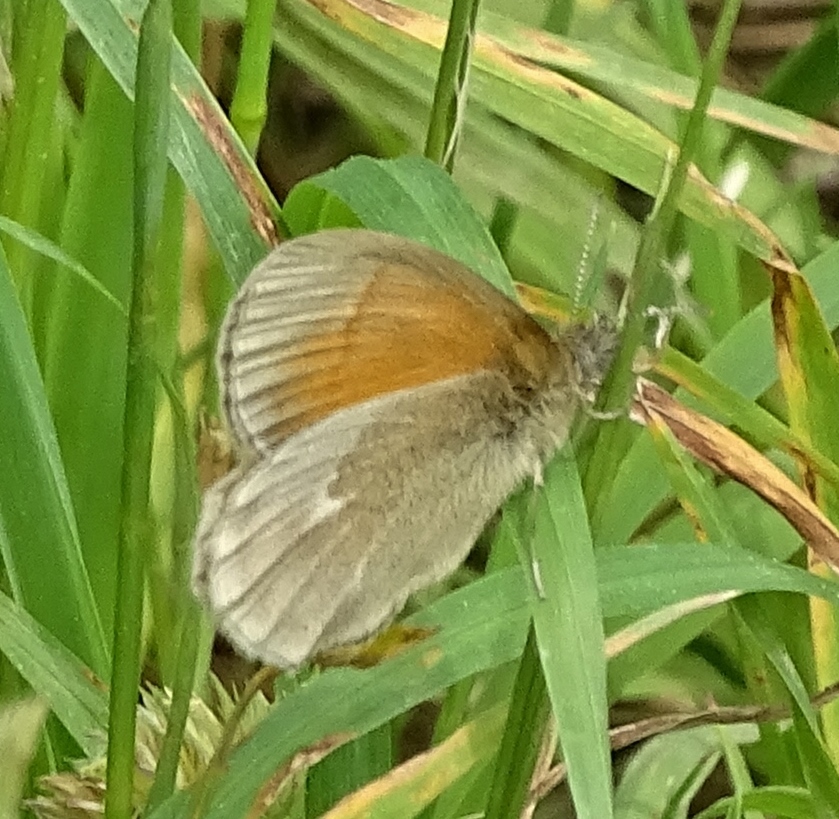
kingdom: Animalia
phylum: Arthropoda
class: Insecta
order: Lepidoptera
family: Nymphalidae
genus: Coenonympha
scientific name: Coenonympha california
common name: Common ringlet
